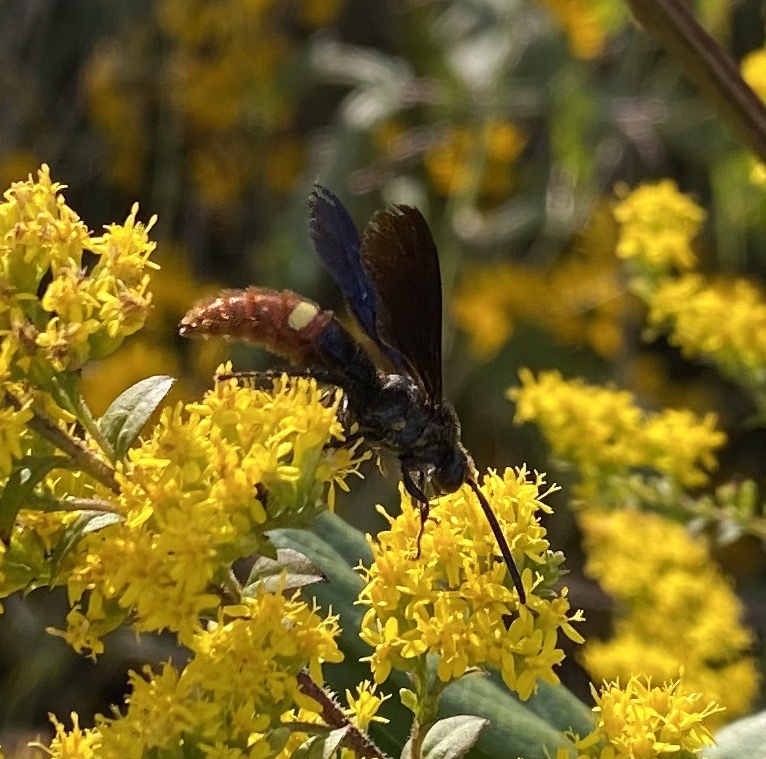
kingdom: Animalia
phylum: Arthropoda
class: Insecta
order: Hymenoptera
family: Scoliidae
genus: Scolia
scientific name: Scolia dubia
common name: Blue-winged scoliid wasp
